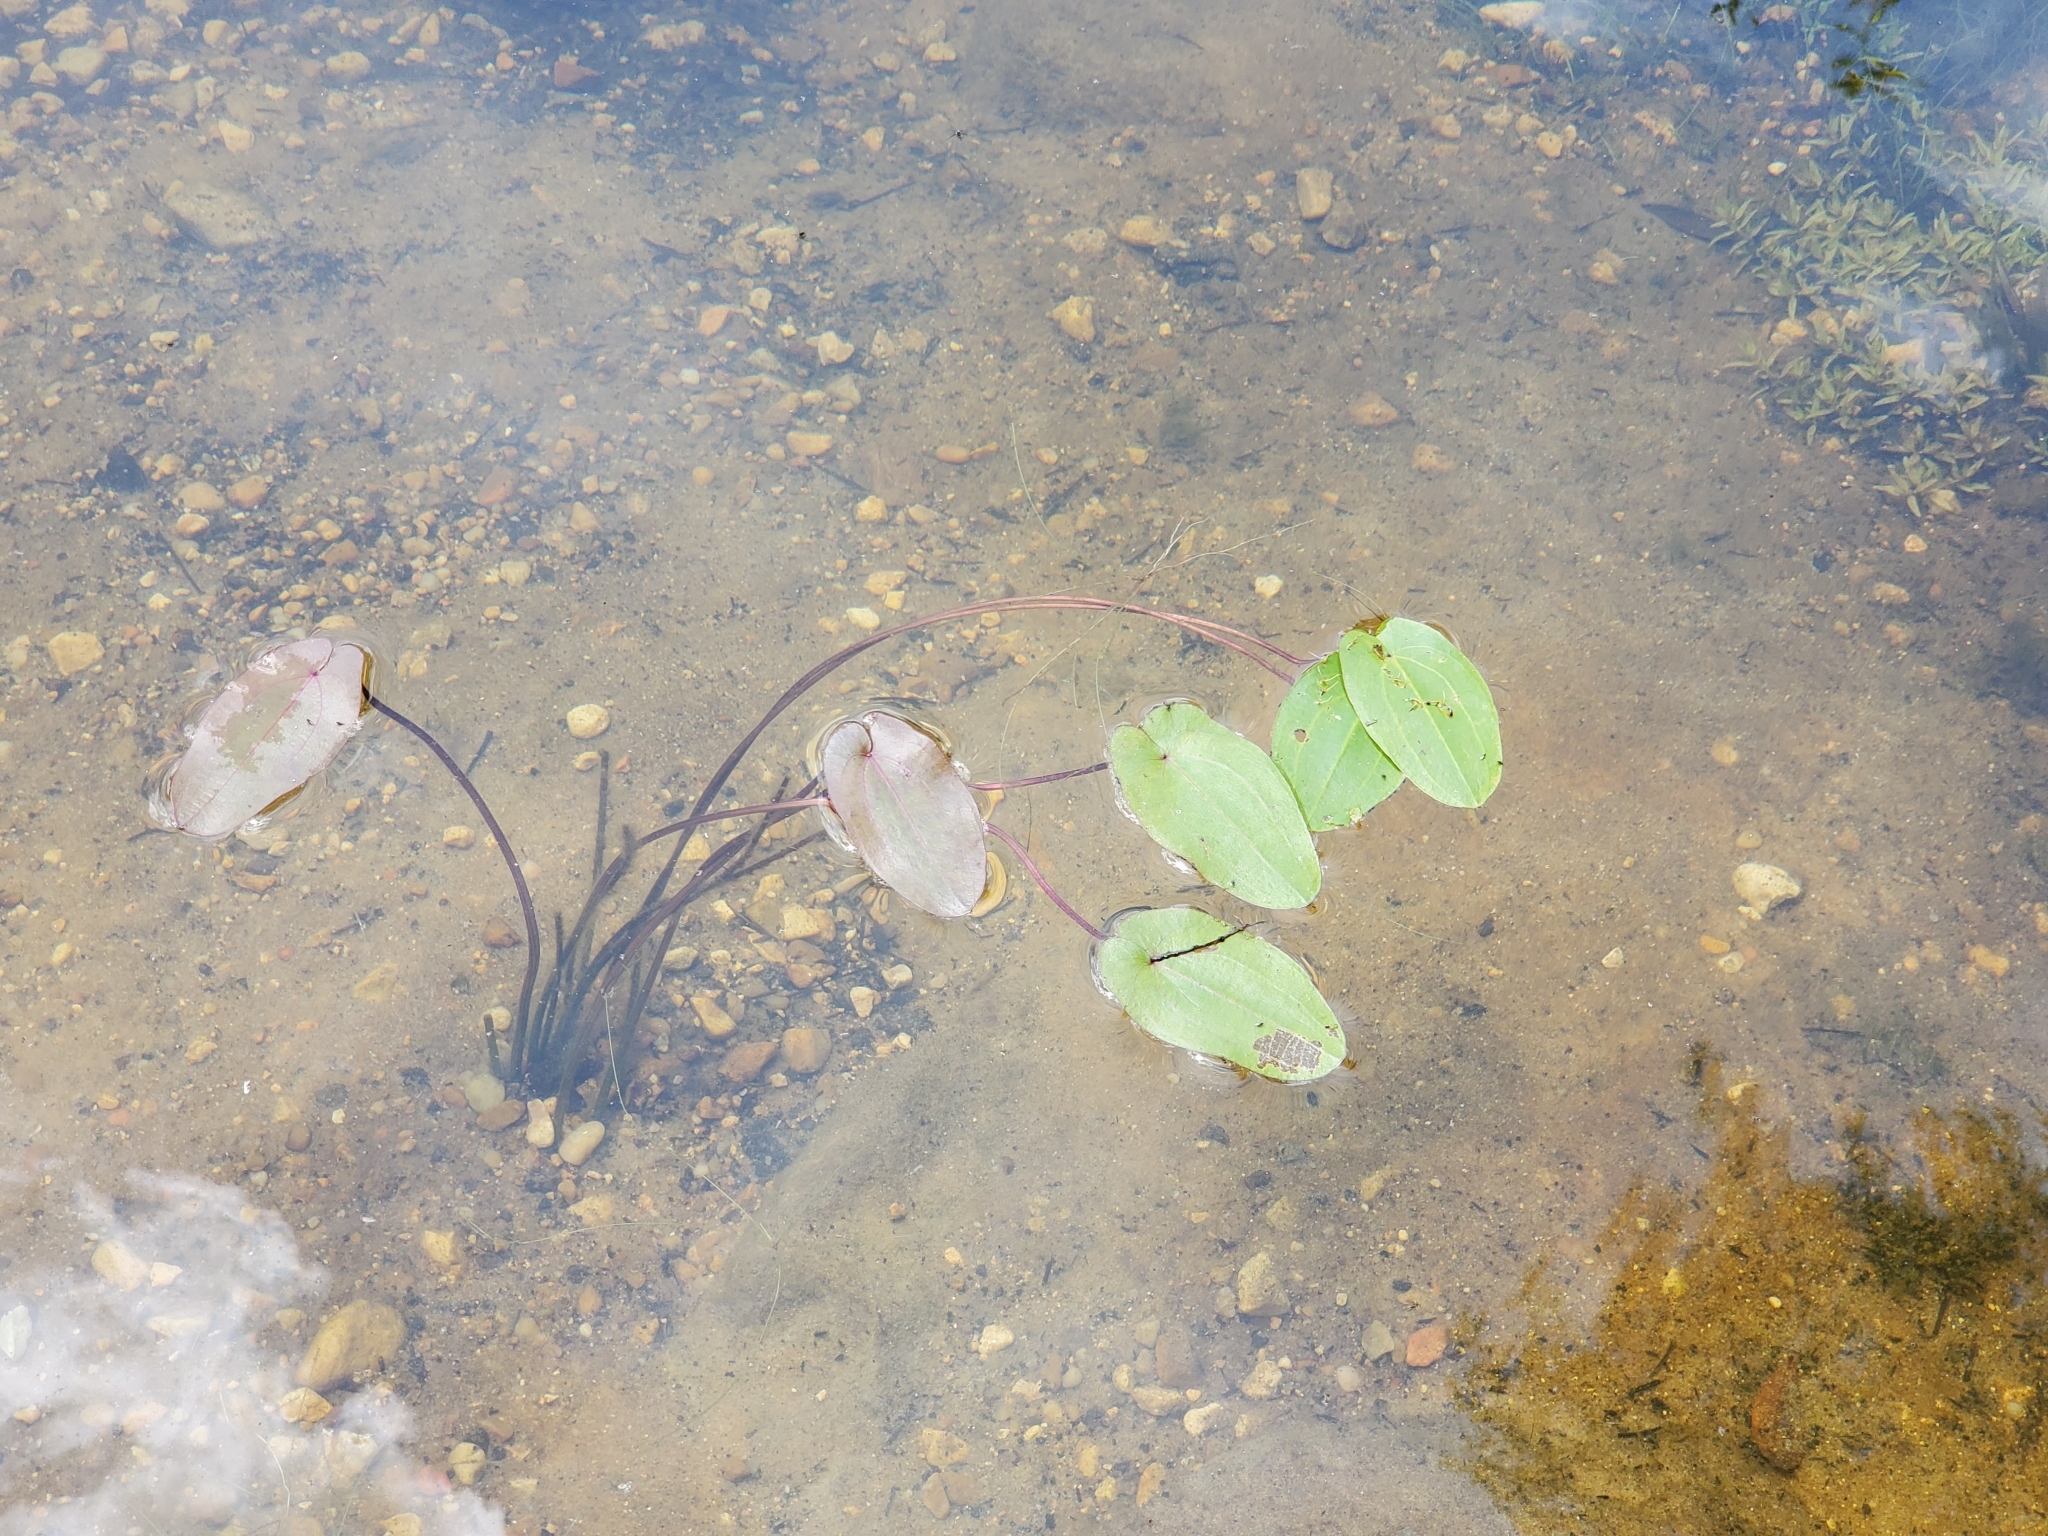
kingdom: Plantae
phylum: Tracheophyta
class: Liliopsida
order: Alismatales
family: Alismataceae
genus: Aquarius
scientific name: Aquarius cordifolius
